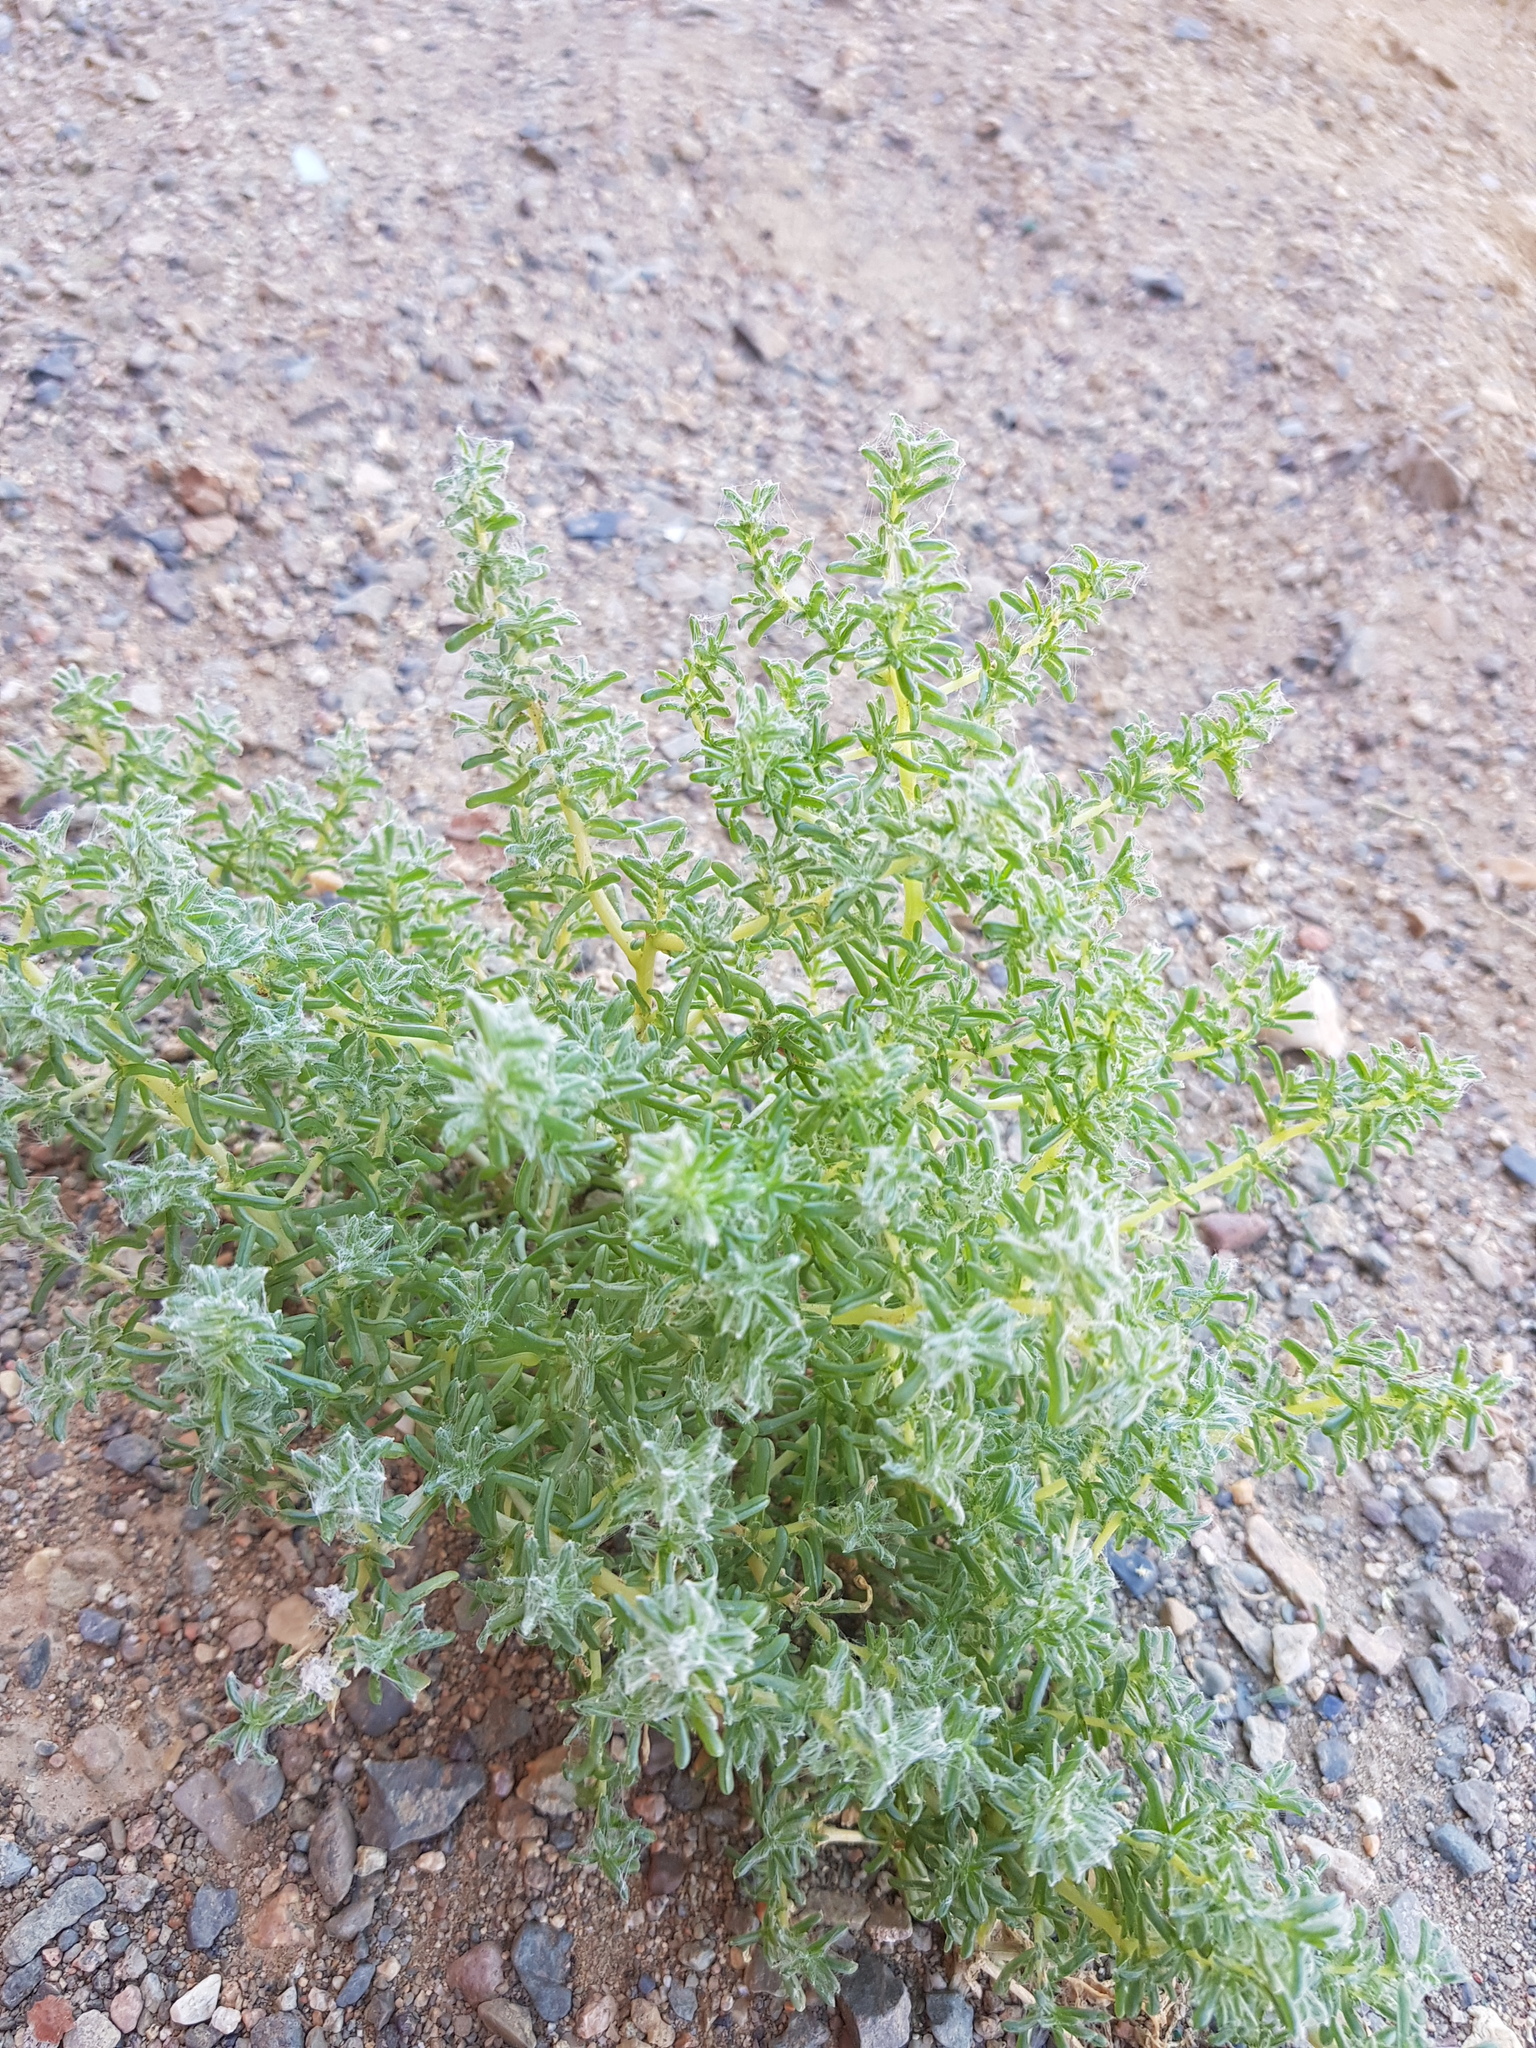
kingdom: Plantae
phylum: Tracheophyta
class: Magnoliopsida
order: Caryophyllales
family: Amaranthaceae
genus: Halogeton
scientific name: Halogeton arachnoides
